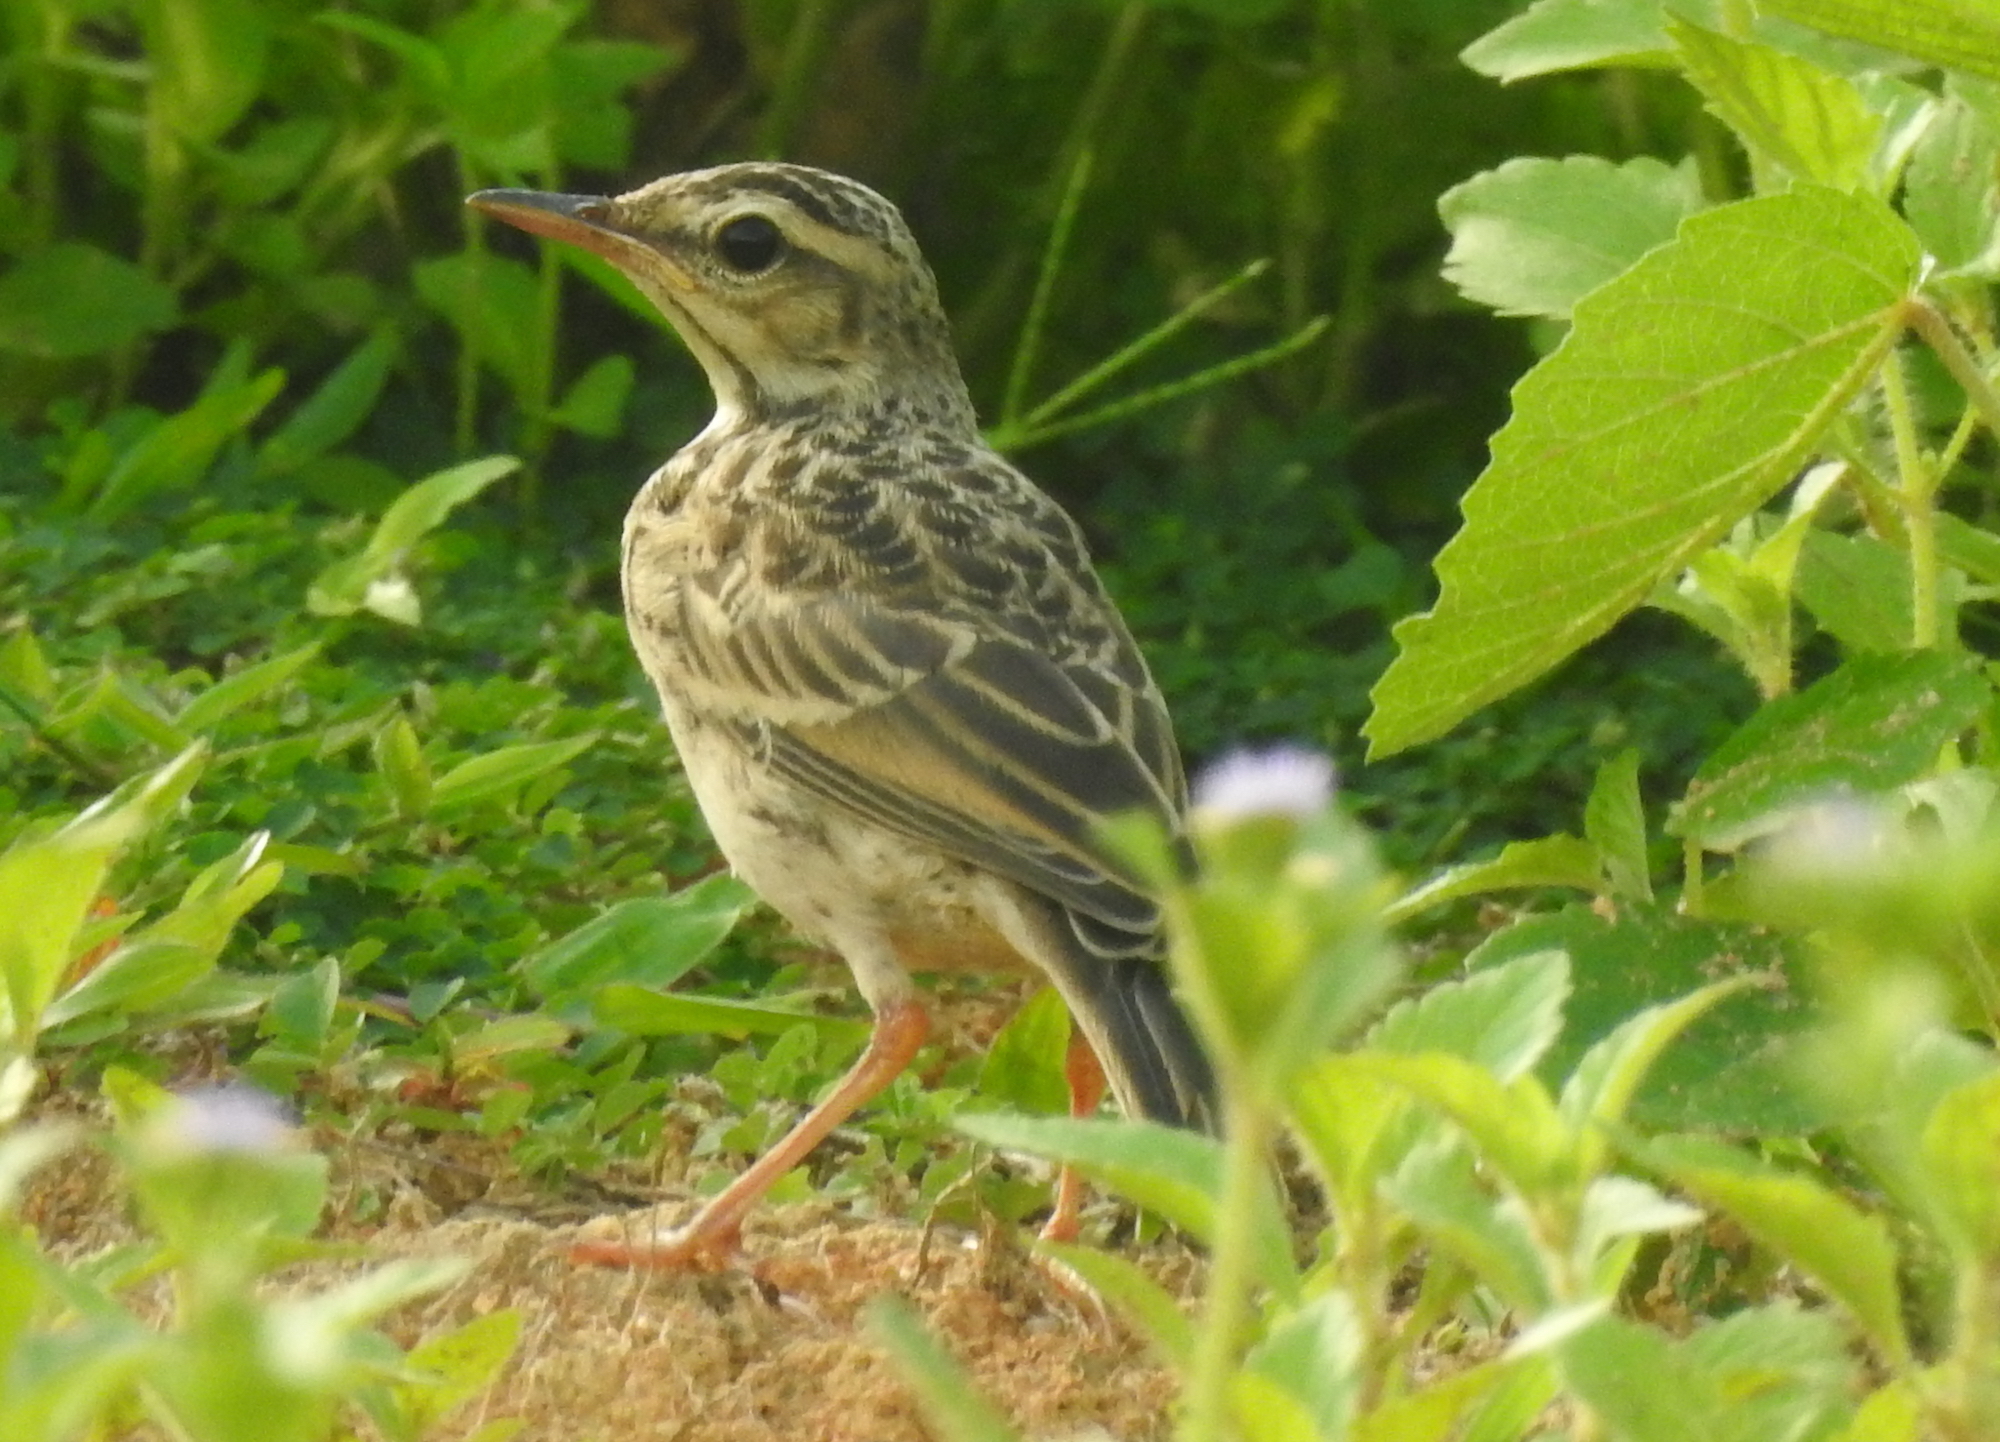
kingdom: Animalia
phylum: Chordata
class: Aves
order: Passeriformes
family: Motacillidae
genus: Anthus
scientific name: Anthus rufulus
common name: Paddyfield pipit
